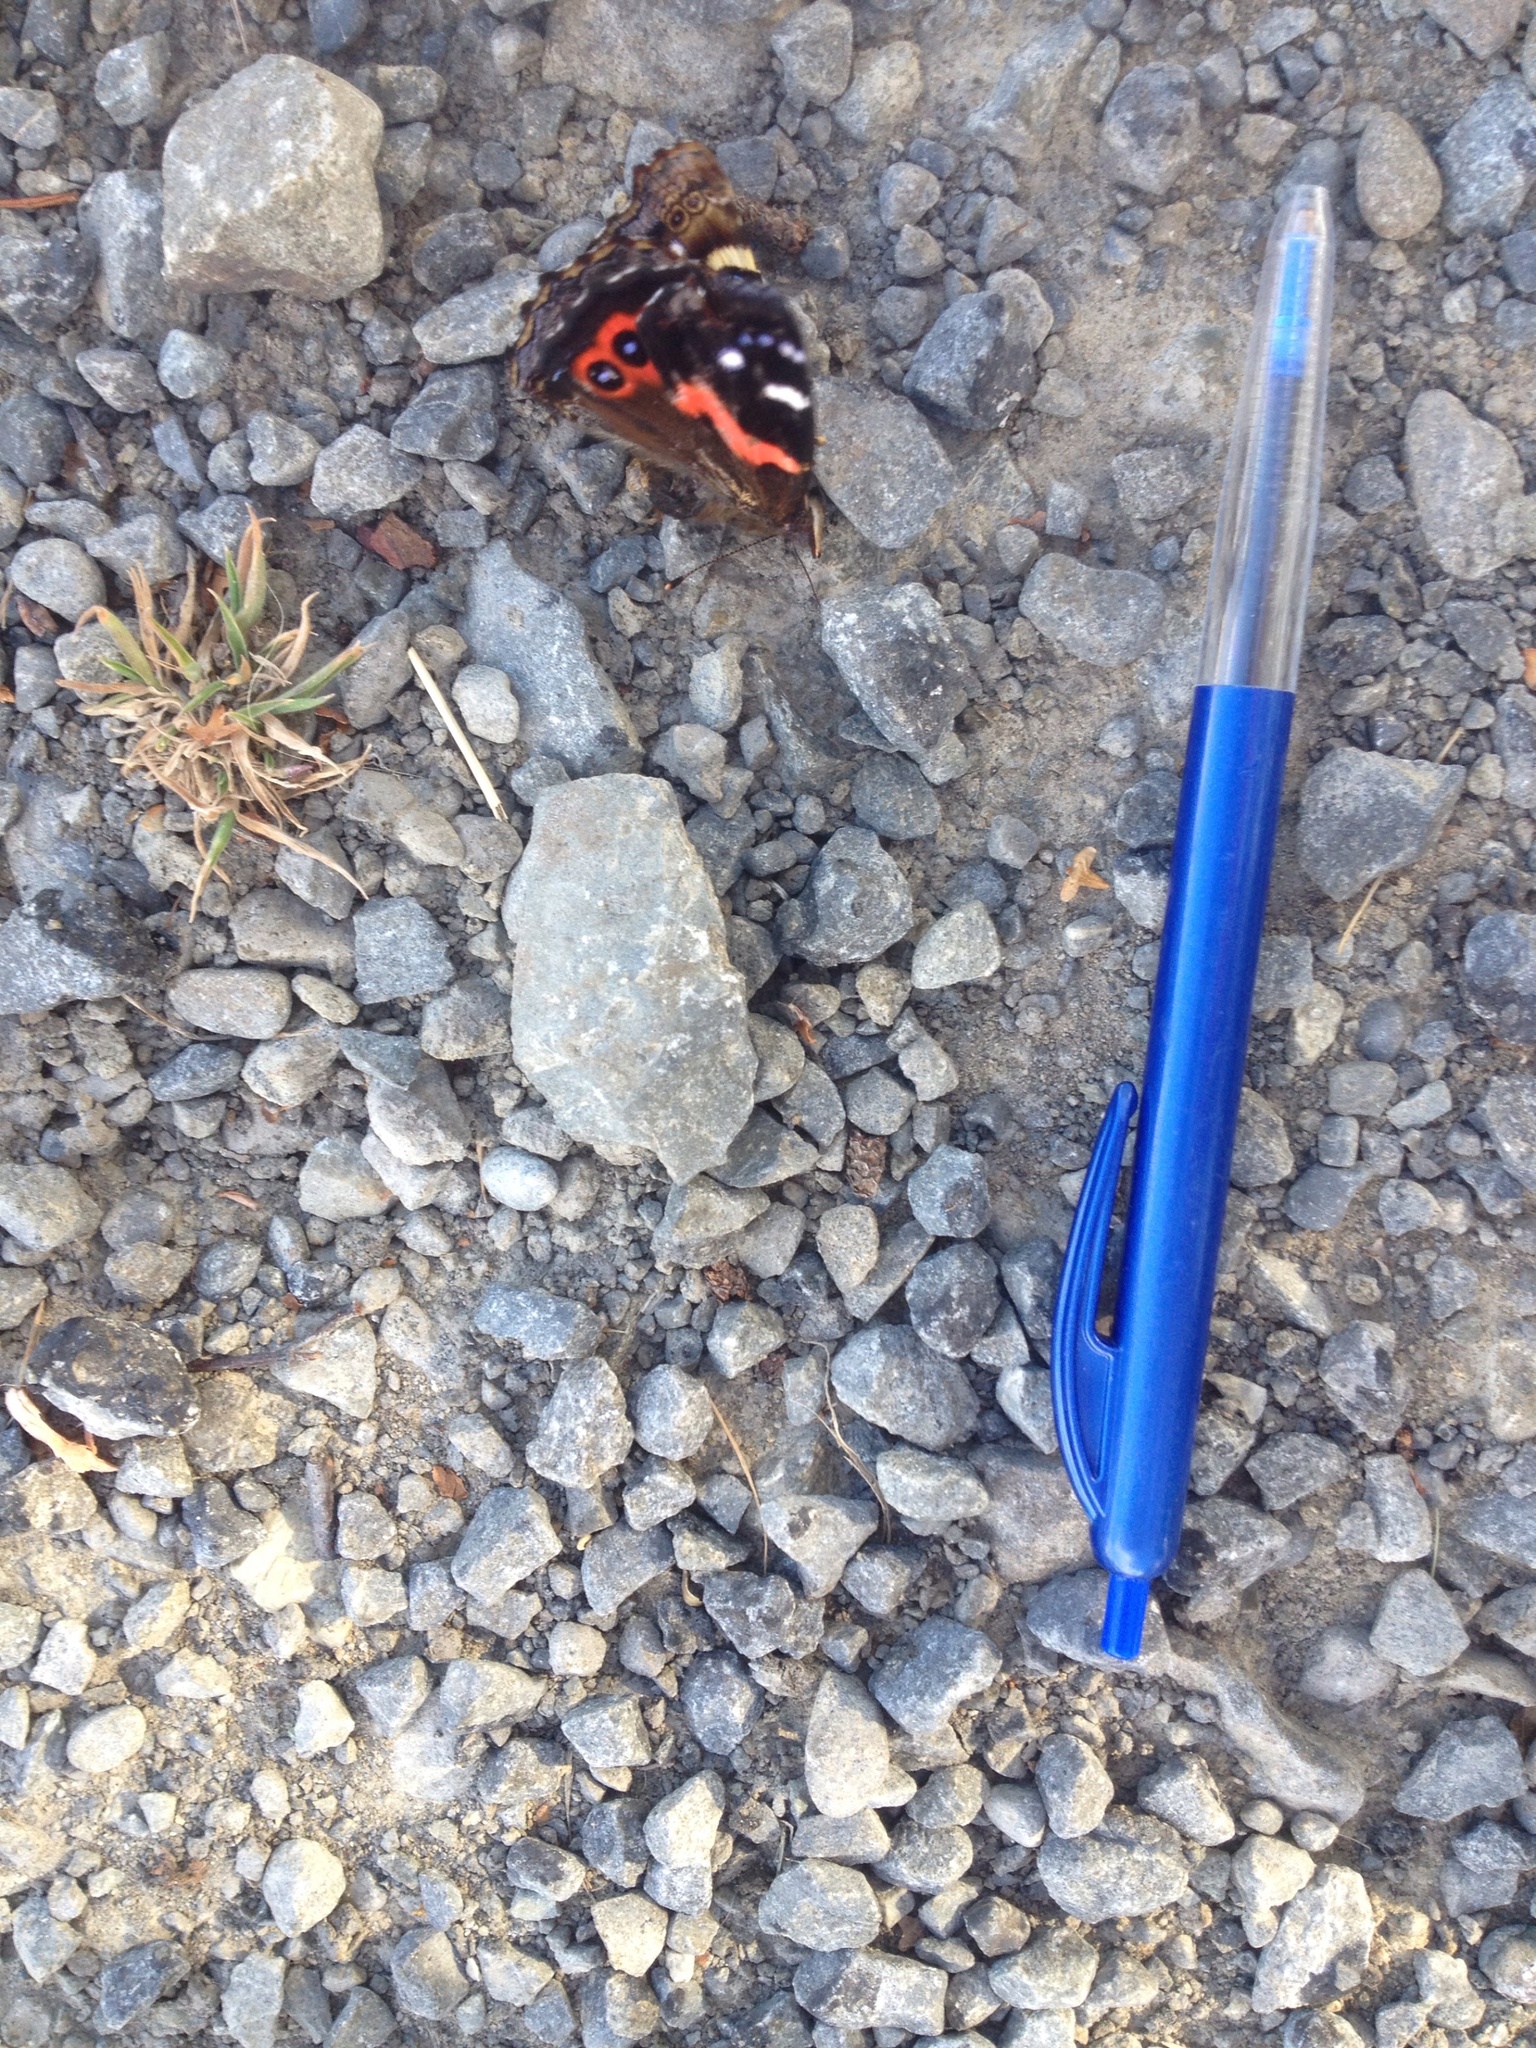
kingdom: Animalia
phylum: Arthropoda
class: Insecta
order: Lepidoptera
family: Nymphalidae
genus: Vanessa
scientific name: Vanessa gonerilla
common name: New zealand red admiral
